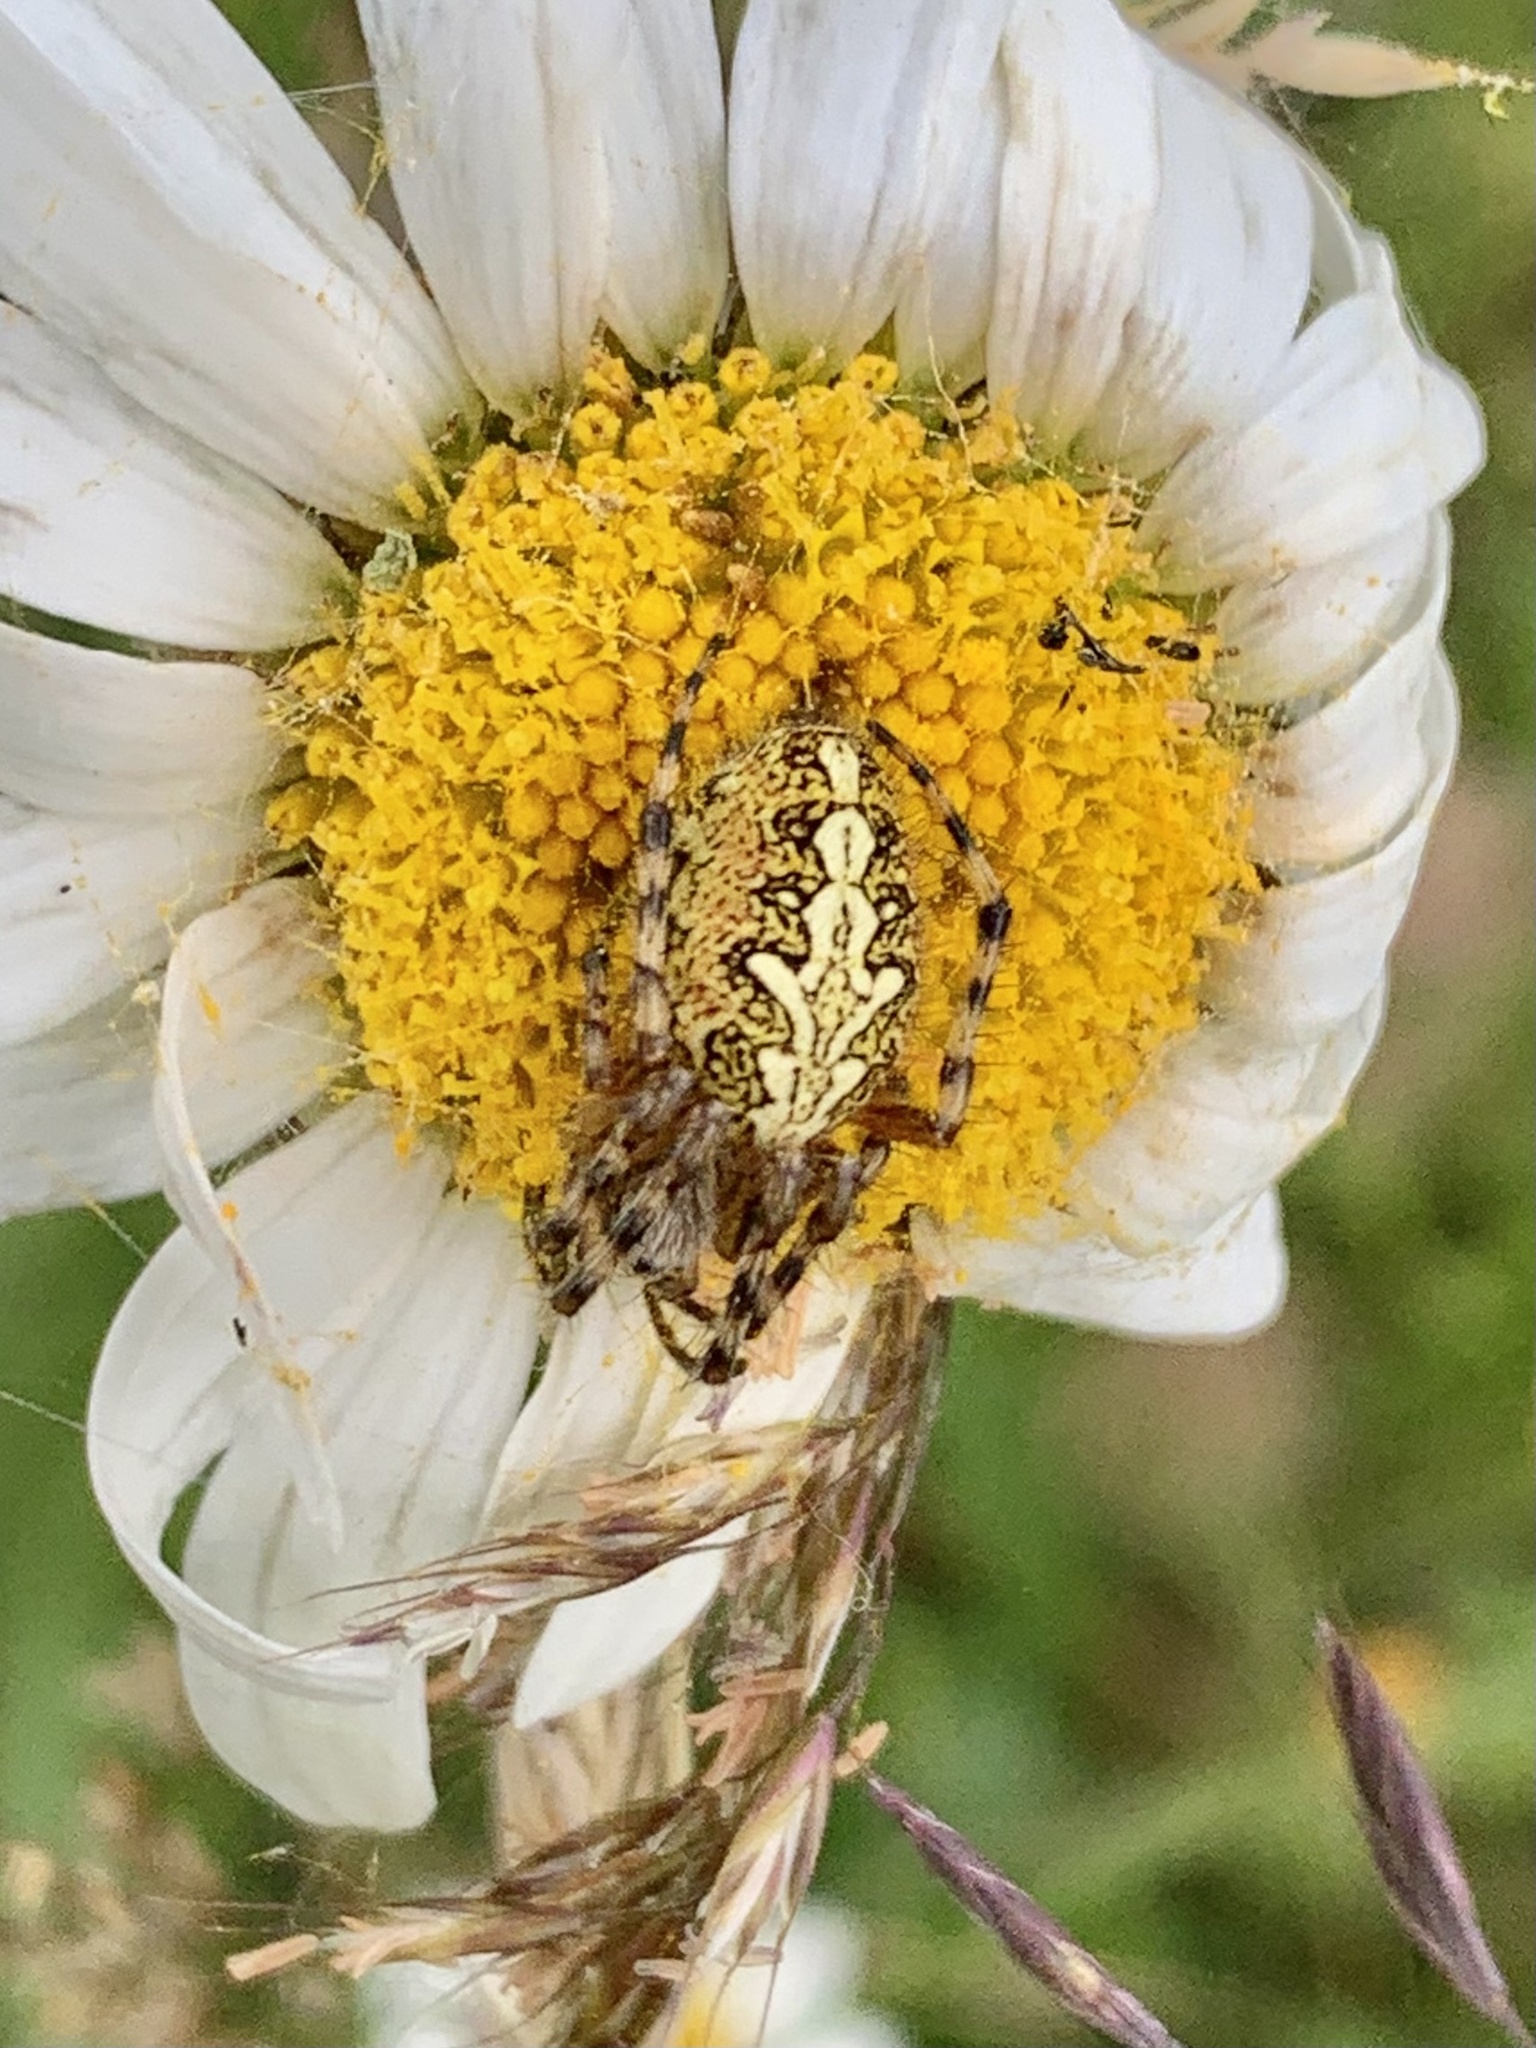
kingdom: Animalia
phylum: Arthropoda
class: Arachnida
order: Araneae
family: Araneidae
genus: Aculepeira
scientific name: Aculepeira ceropegia
